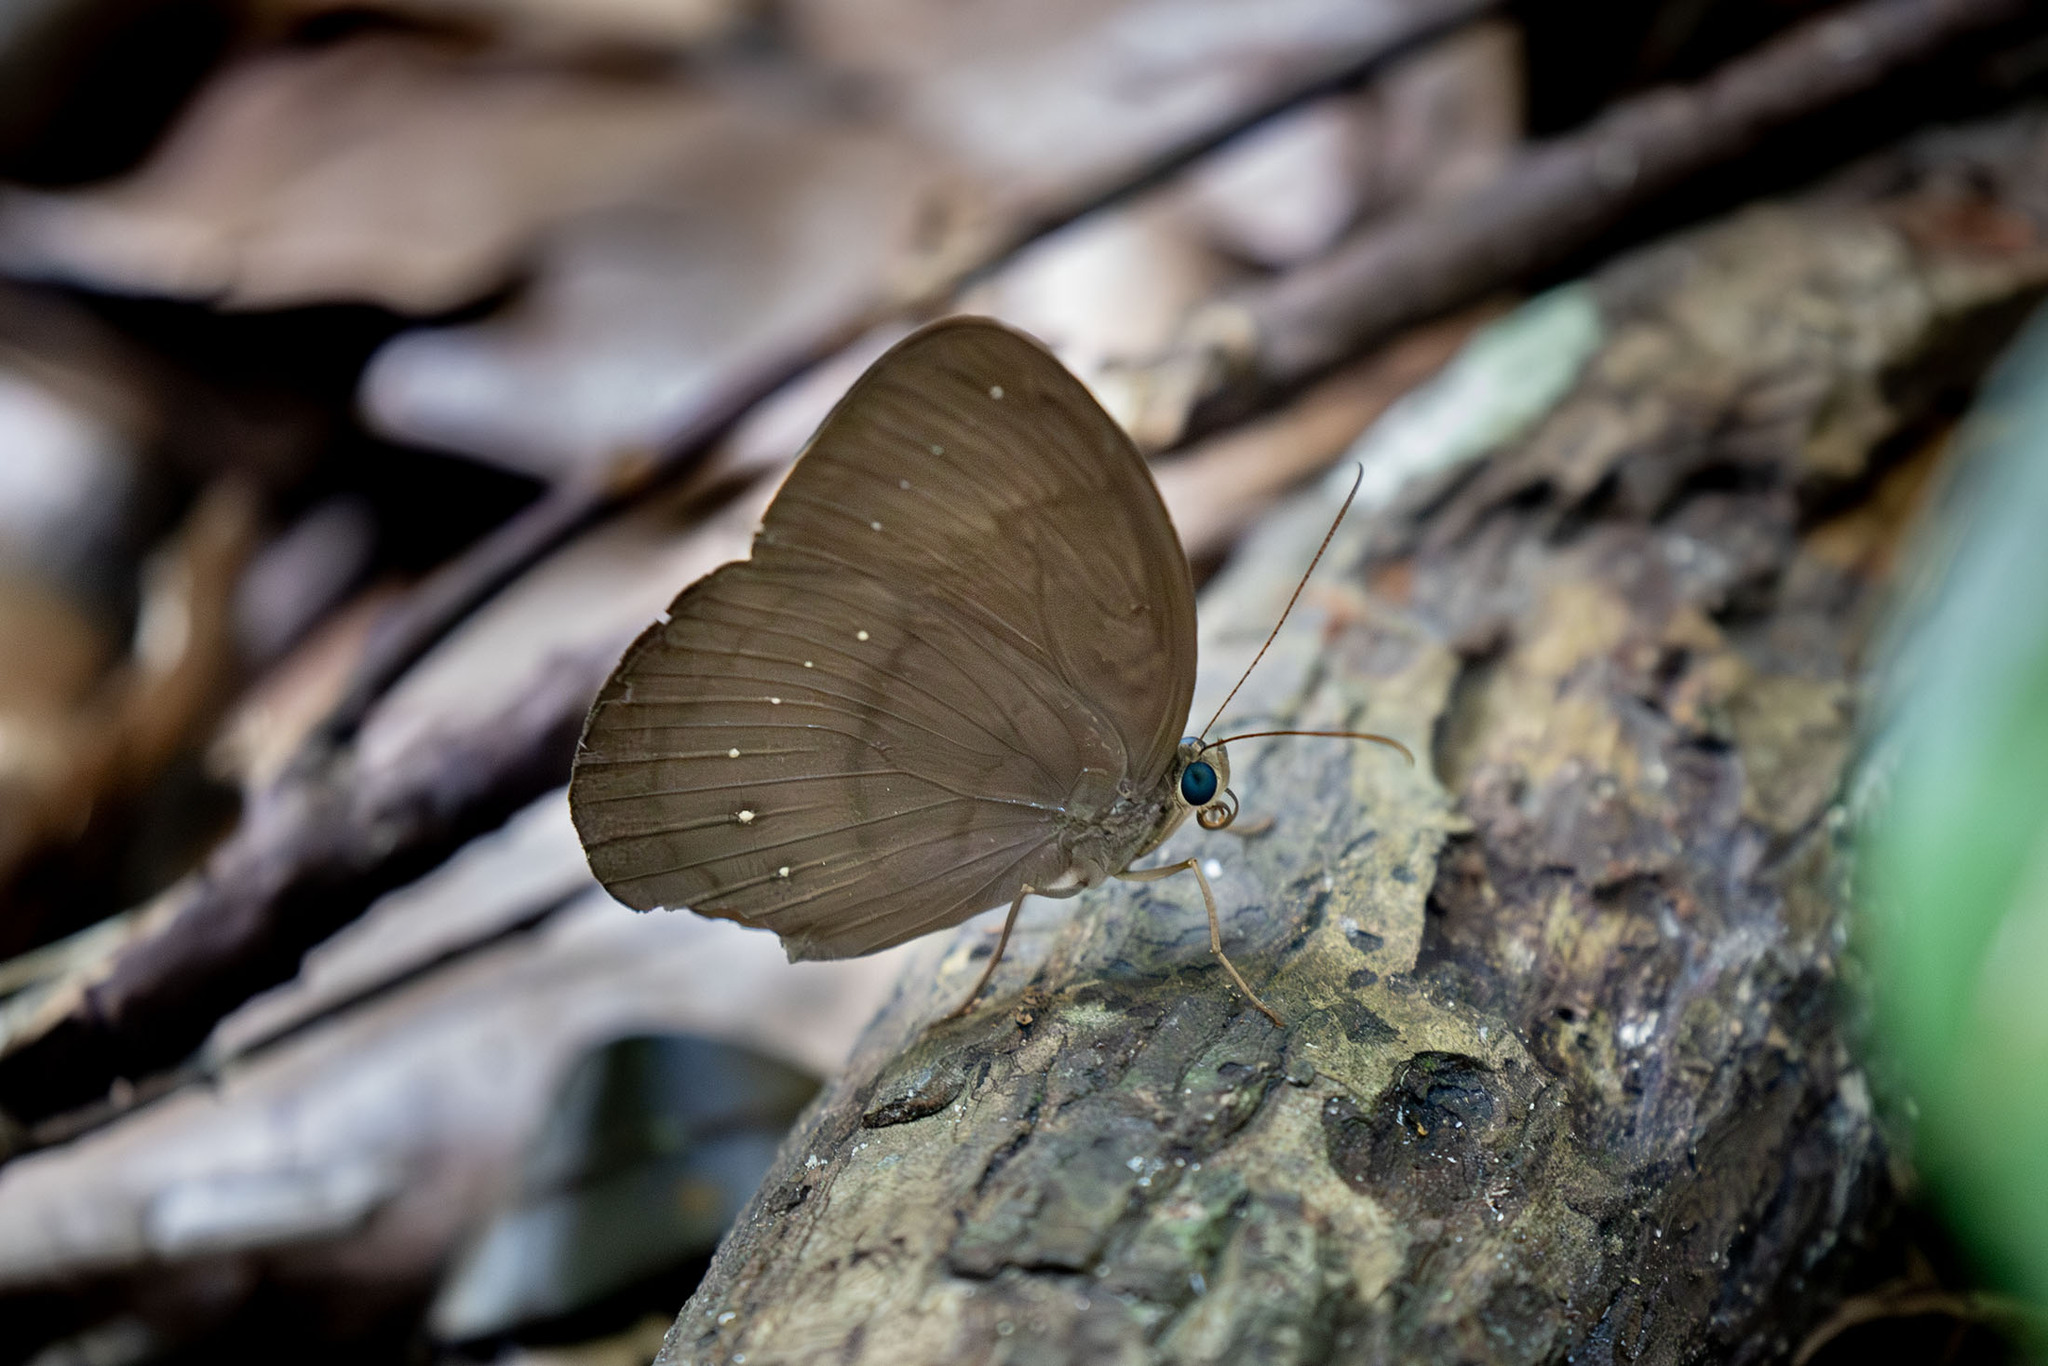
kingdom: Animalia
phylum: Arthropoda
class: Insecta
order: Lepidoptera
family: Nymphalidae
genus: Faunis
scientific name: Faunis canens
